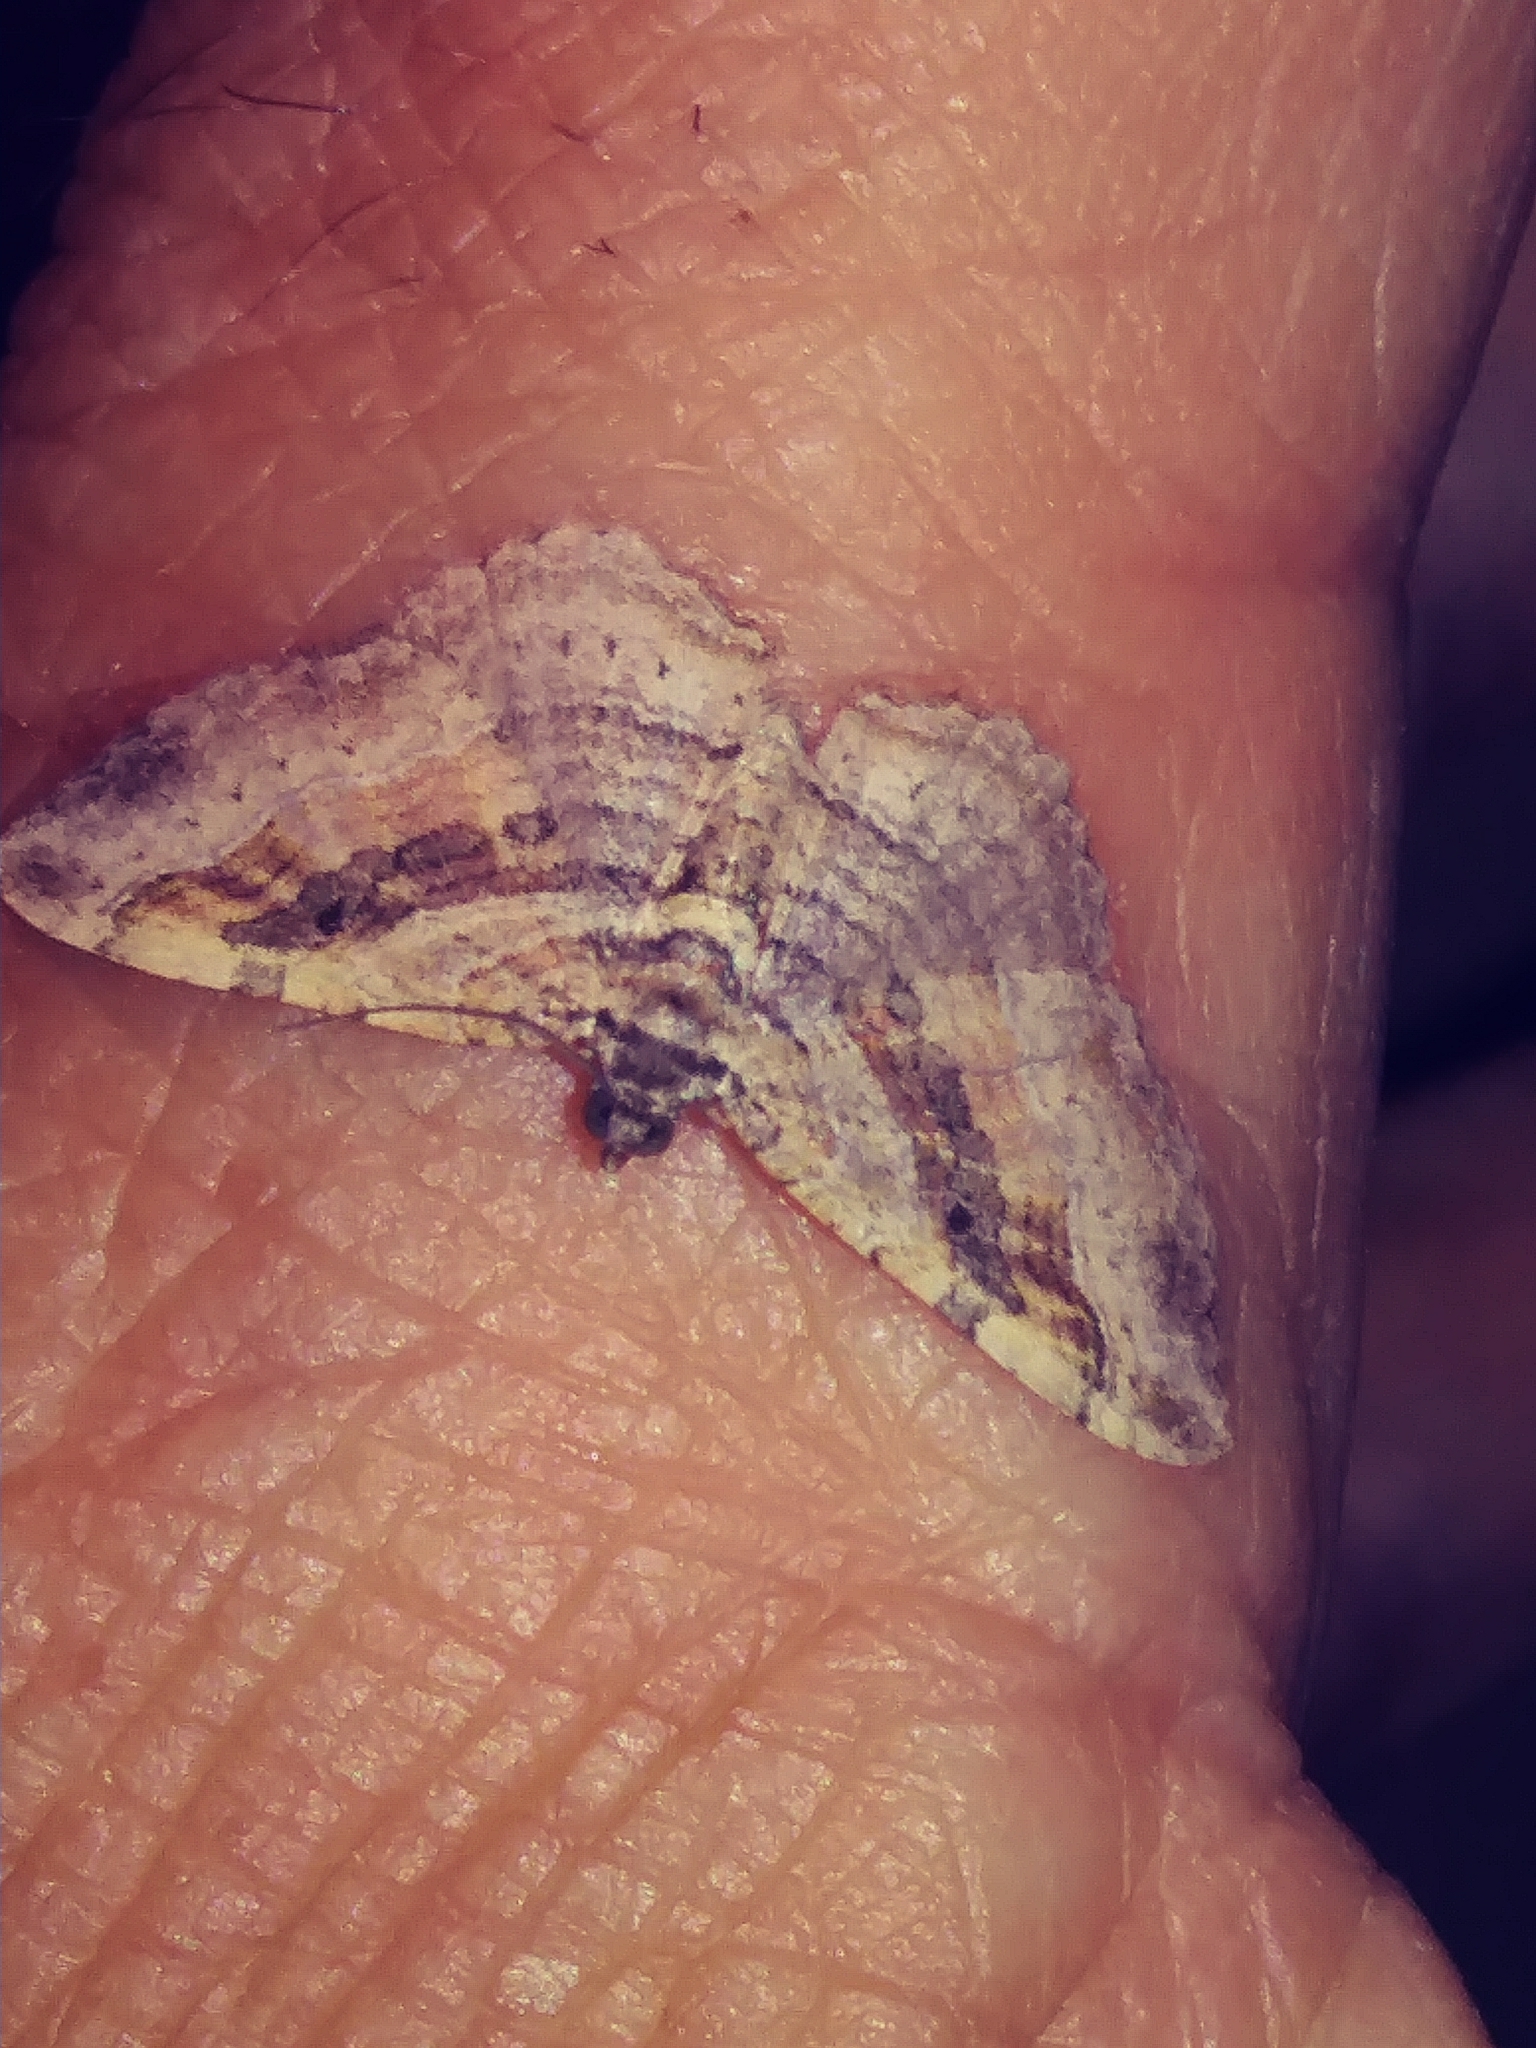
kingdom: Animalia
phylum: Arthropoda
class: Insecta
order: Lepidoptera
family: Geometridae
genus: Costaconvexa
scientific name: Costaconvexa centrostrigaria
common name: Bent-line carpet
